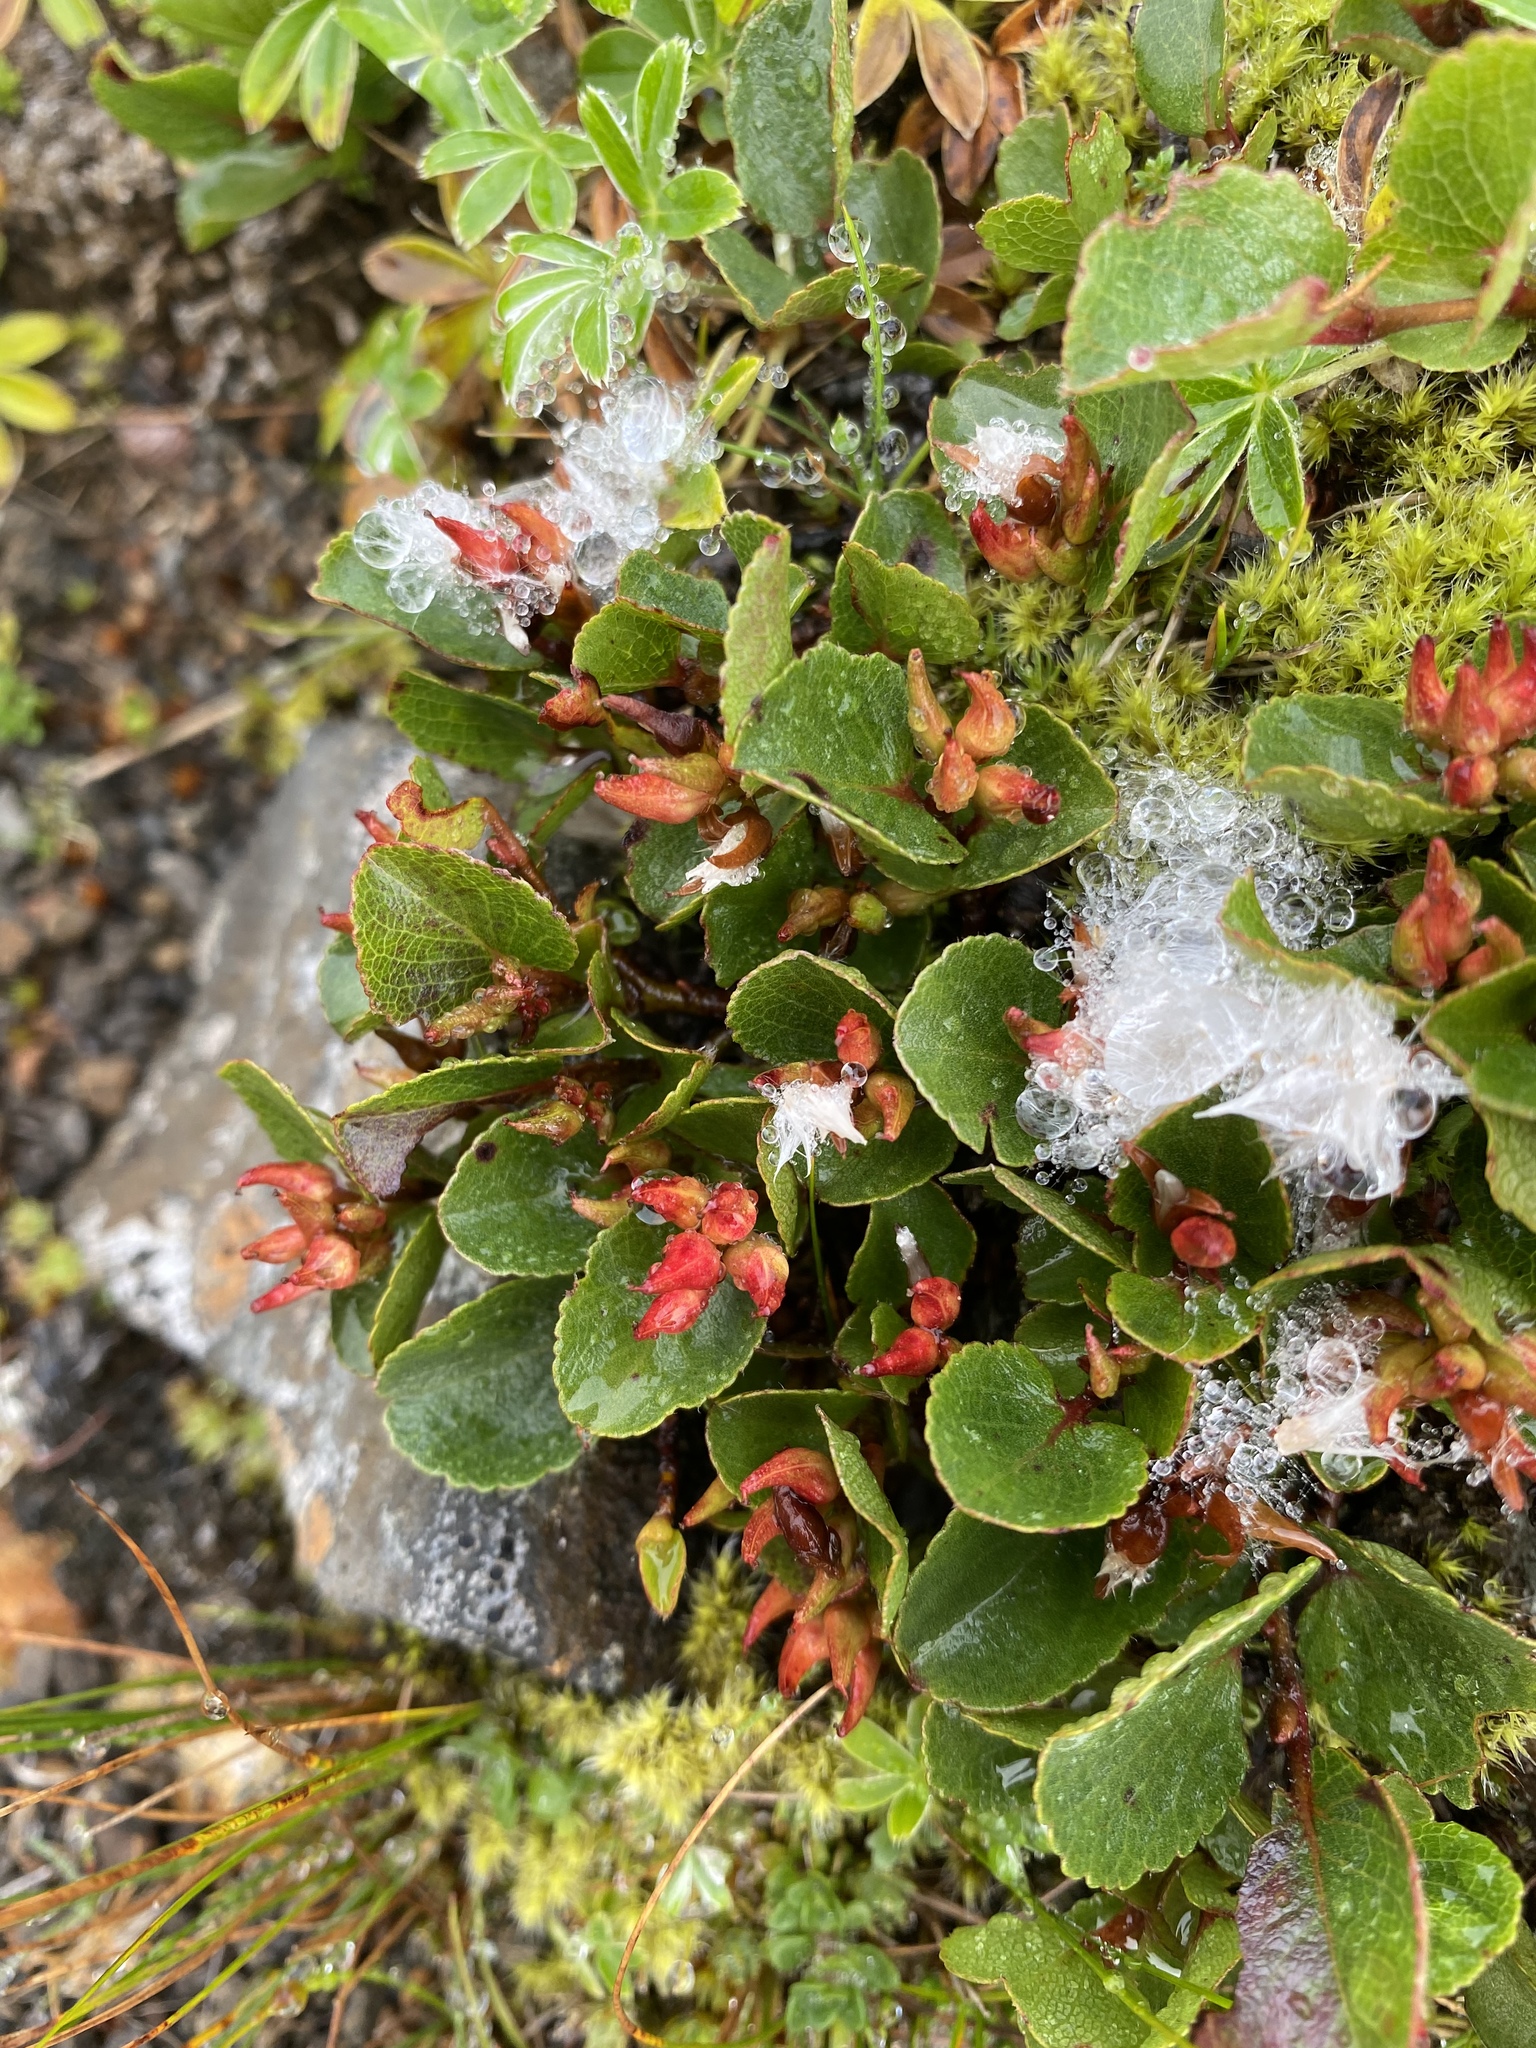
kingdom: Plantae
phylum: Tracheophyta
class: Magnoliopsida
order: Malpighiales
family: Salicaceae
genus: Salix
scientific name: Salix herbacea
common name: Dwarf willow
